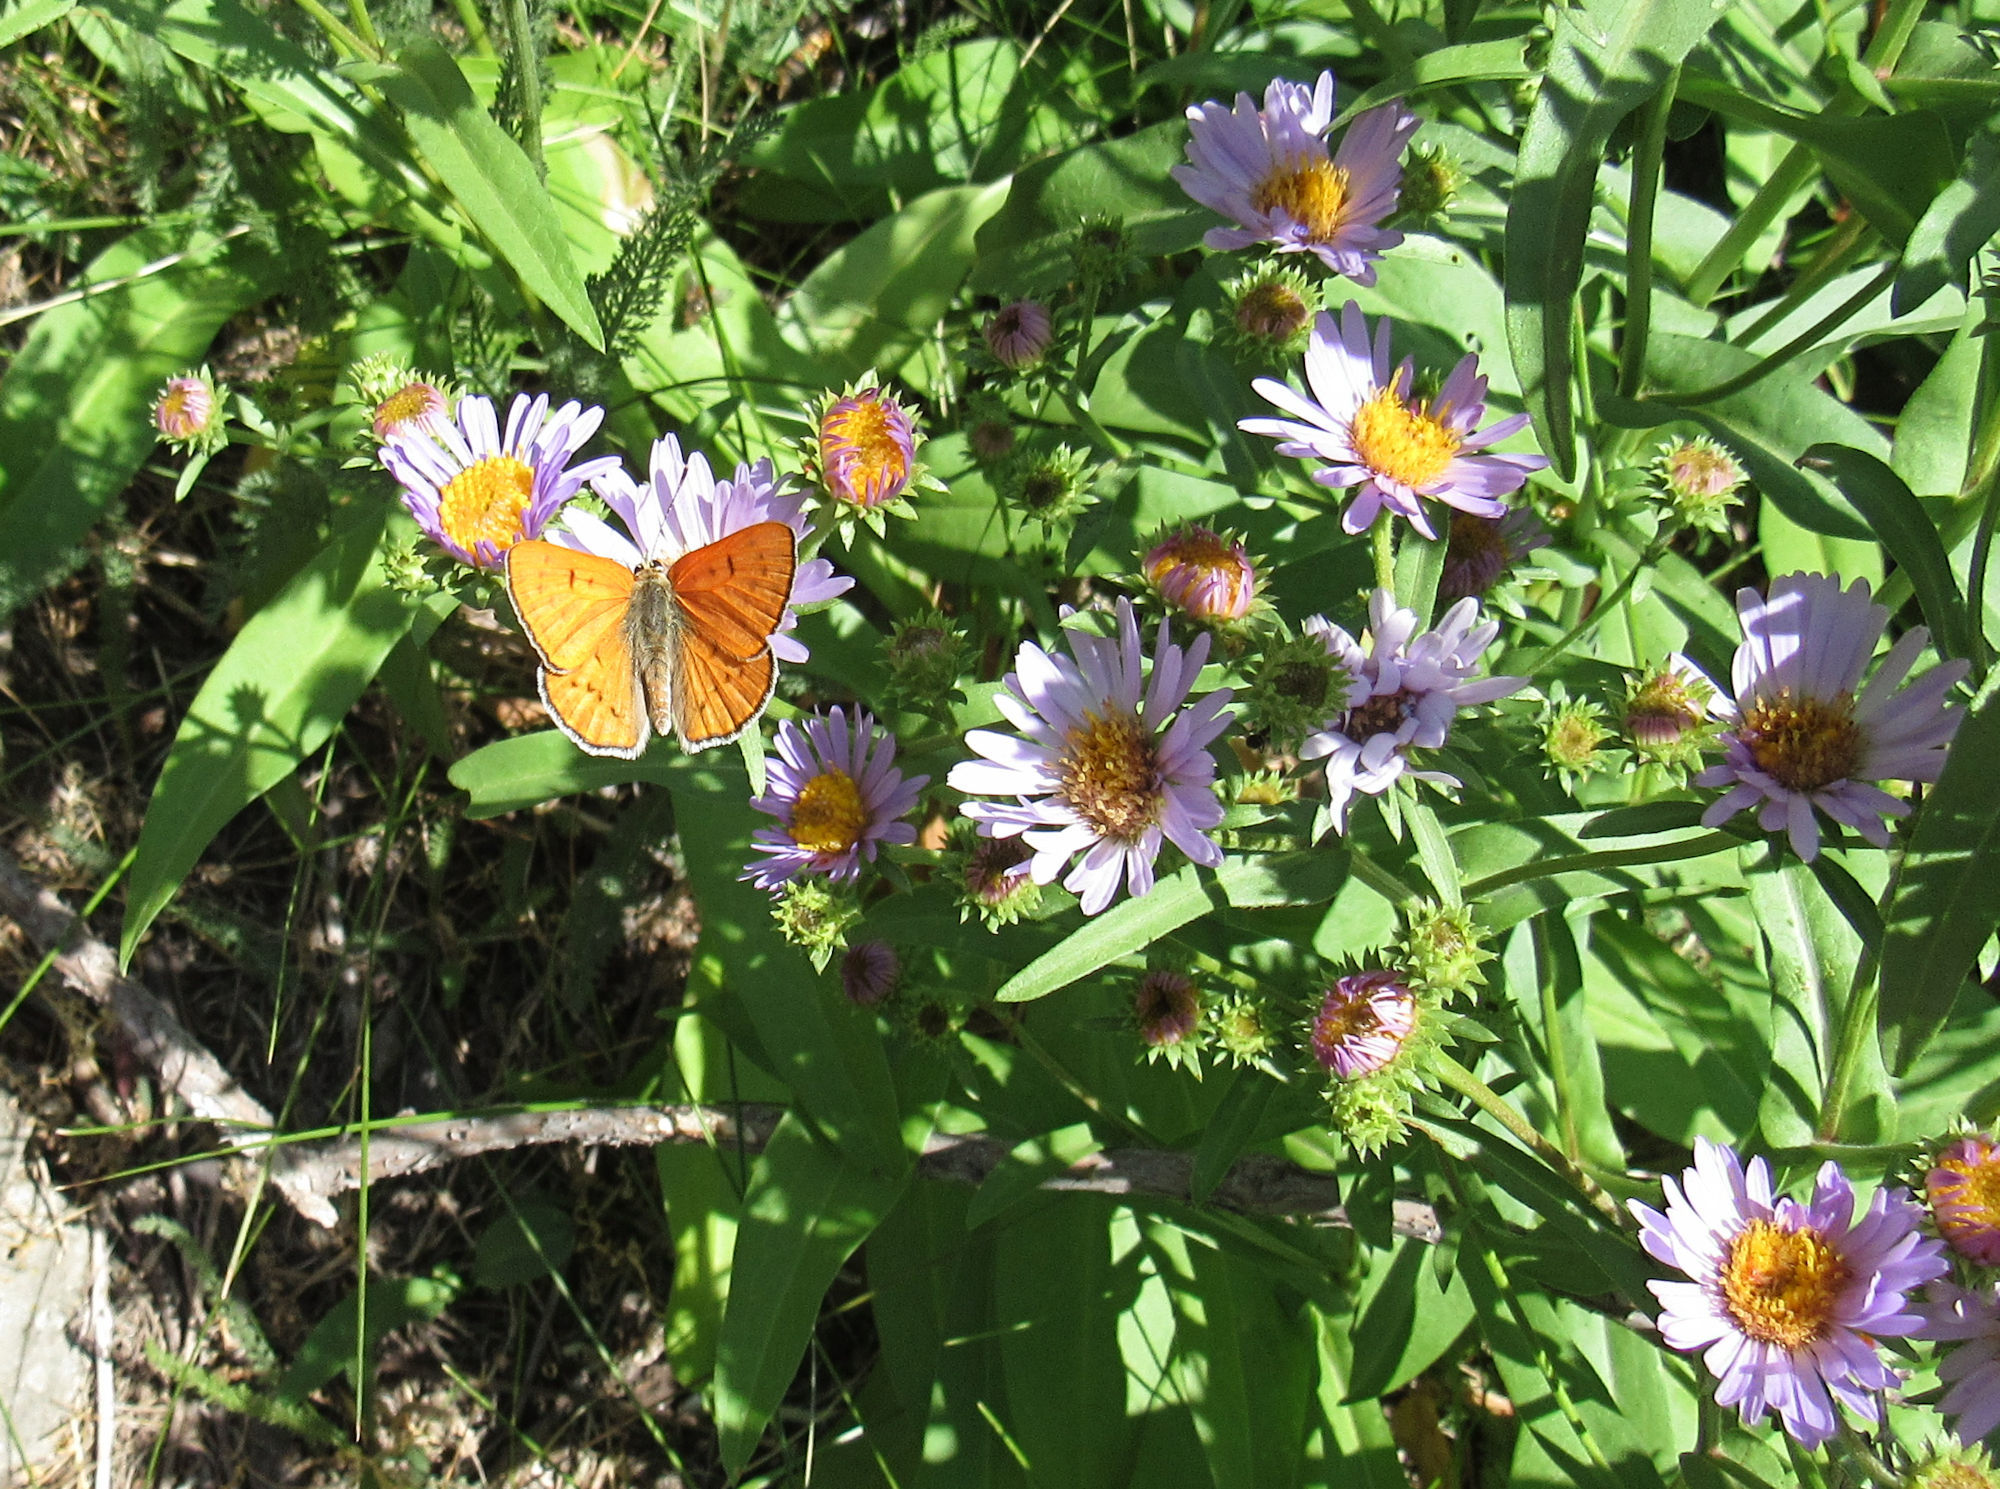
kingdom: Animalia
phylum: Arthropoda
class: Insecta
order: Lepidoptera
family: Lycaenidae
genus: Tharsalea
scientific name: Tharsalea rubidus
